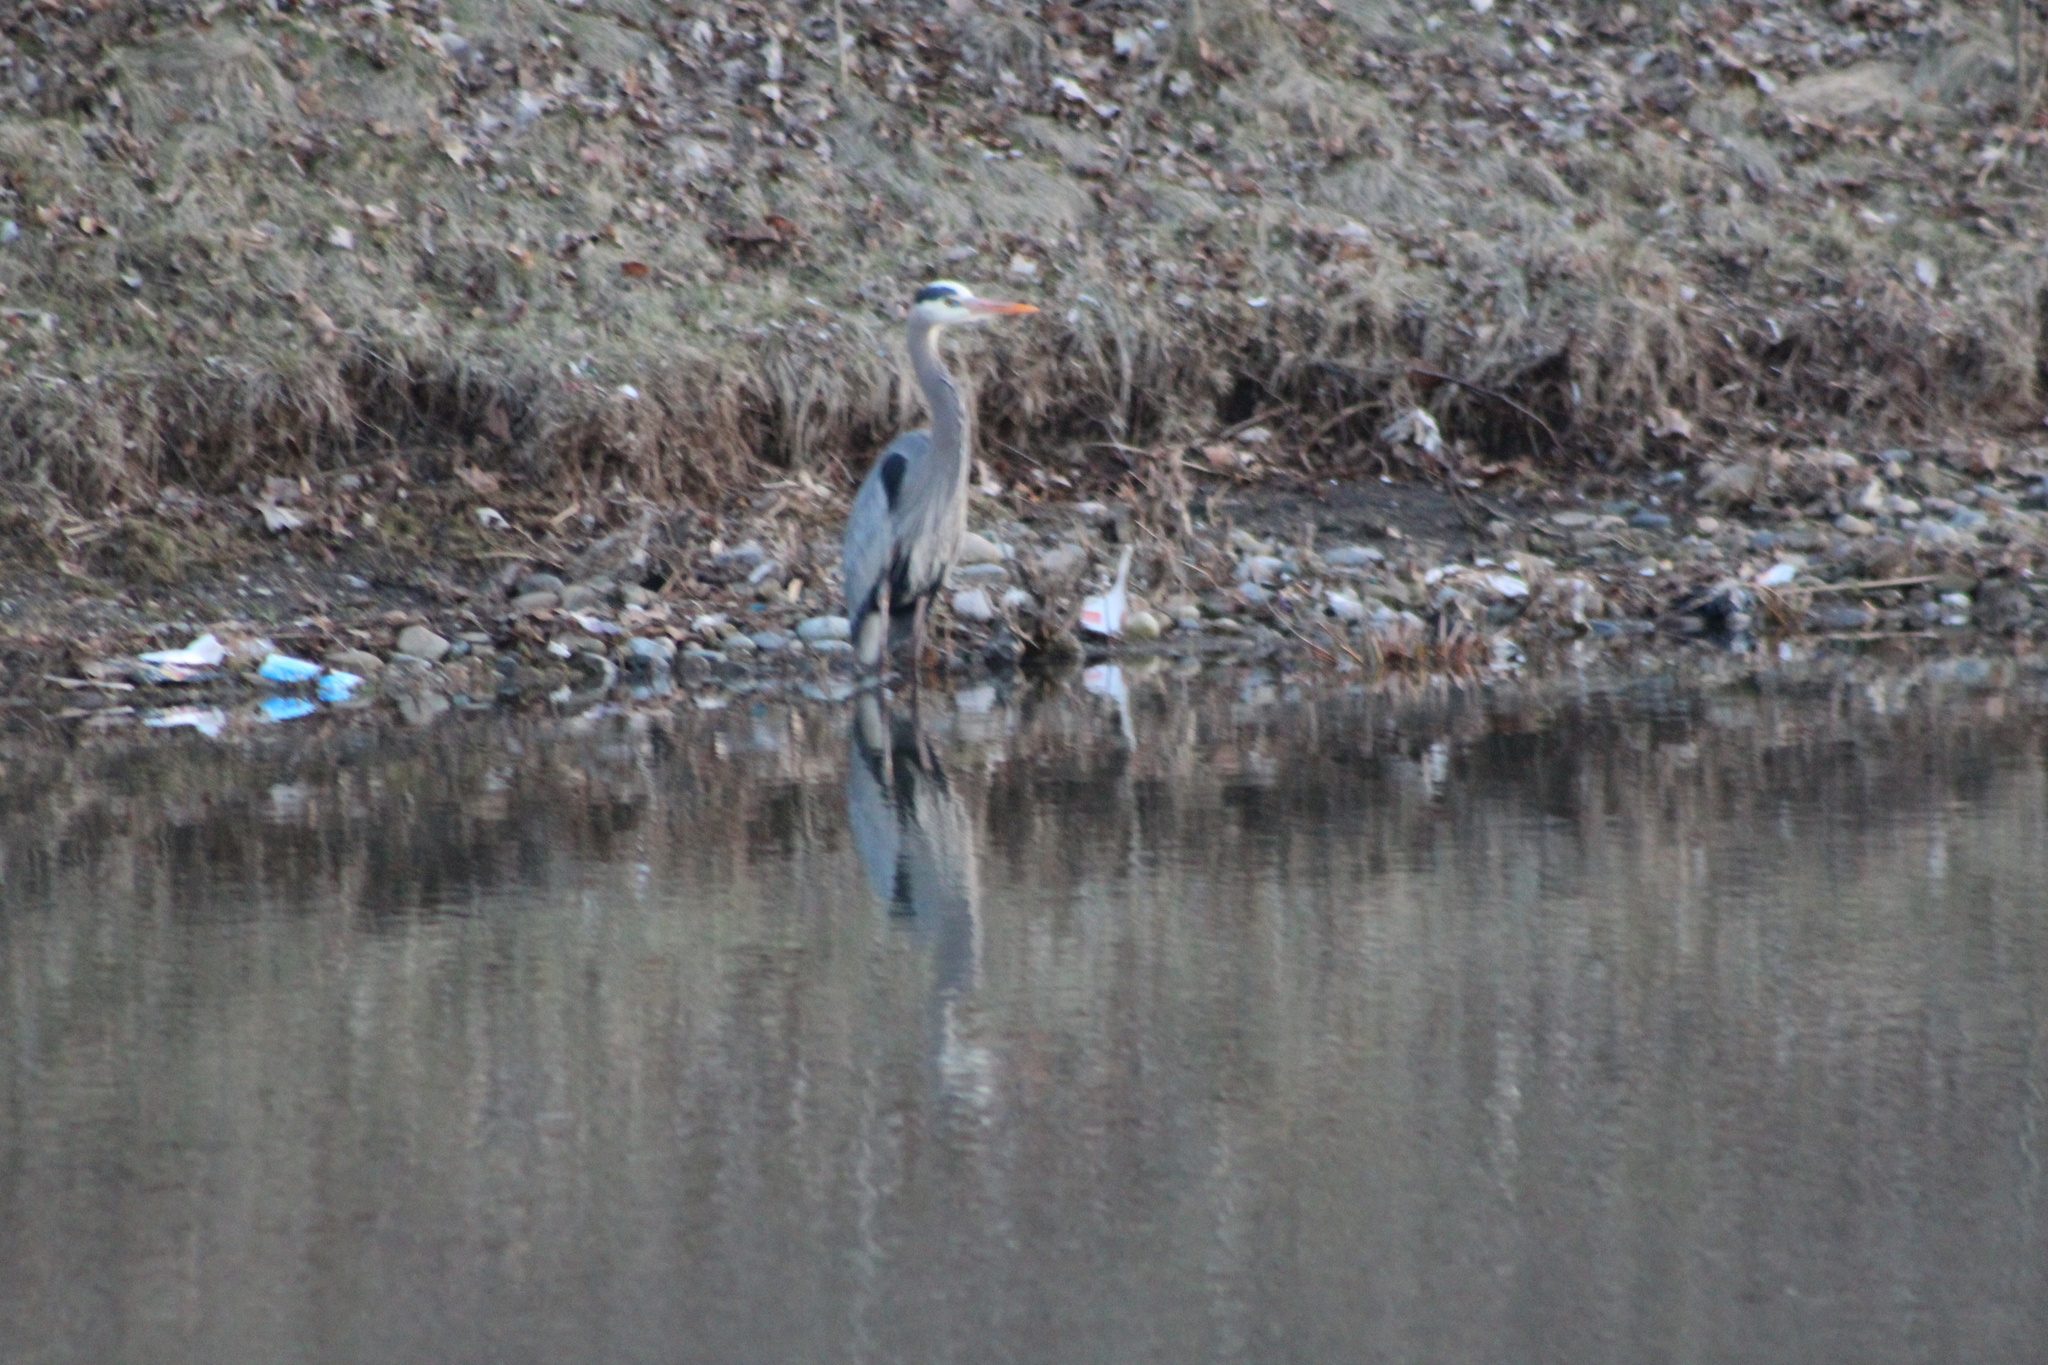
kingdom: Animalia
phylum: Chordata
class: Aves
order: Pelecaniformes
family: Ardeidae
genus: Ardea
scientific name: Ardea herodias
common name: Great blue heron
